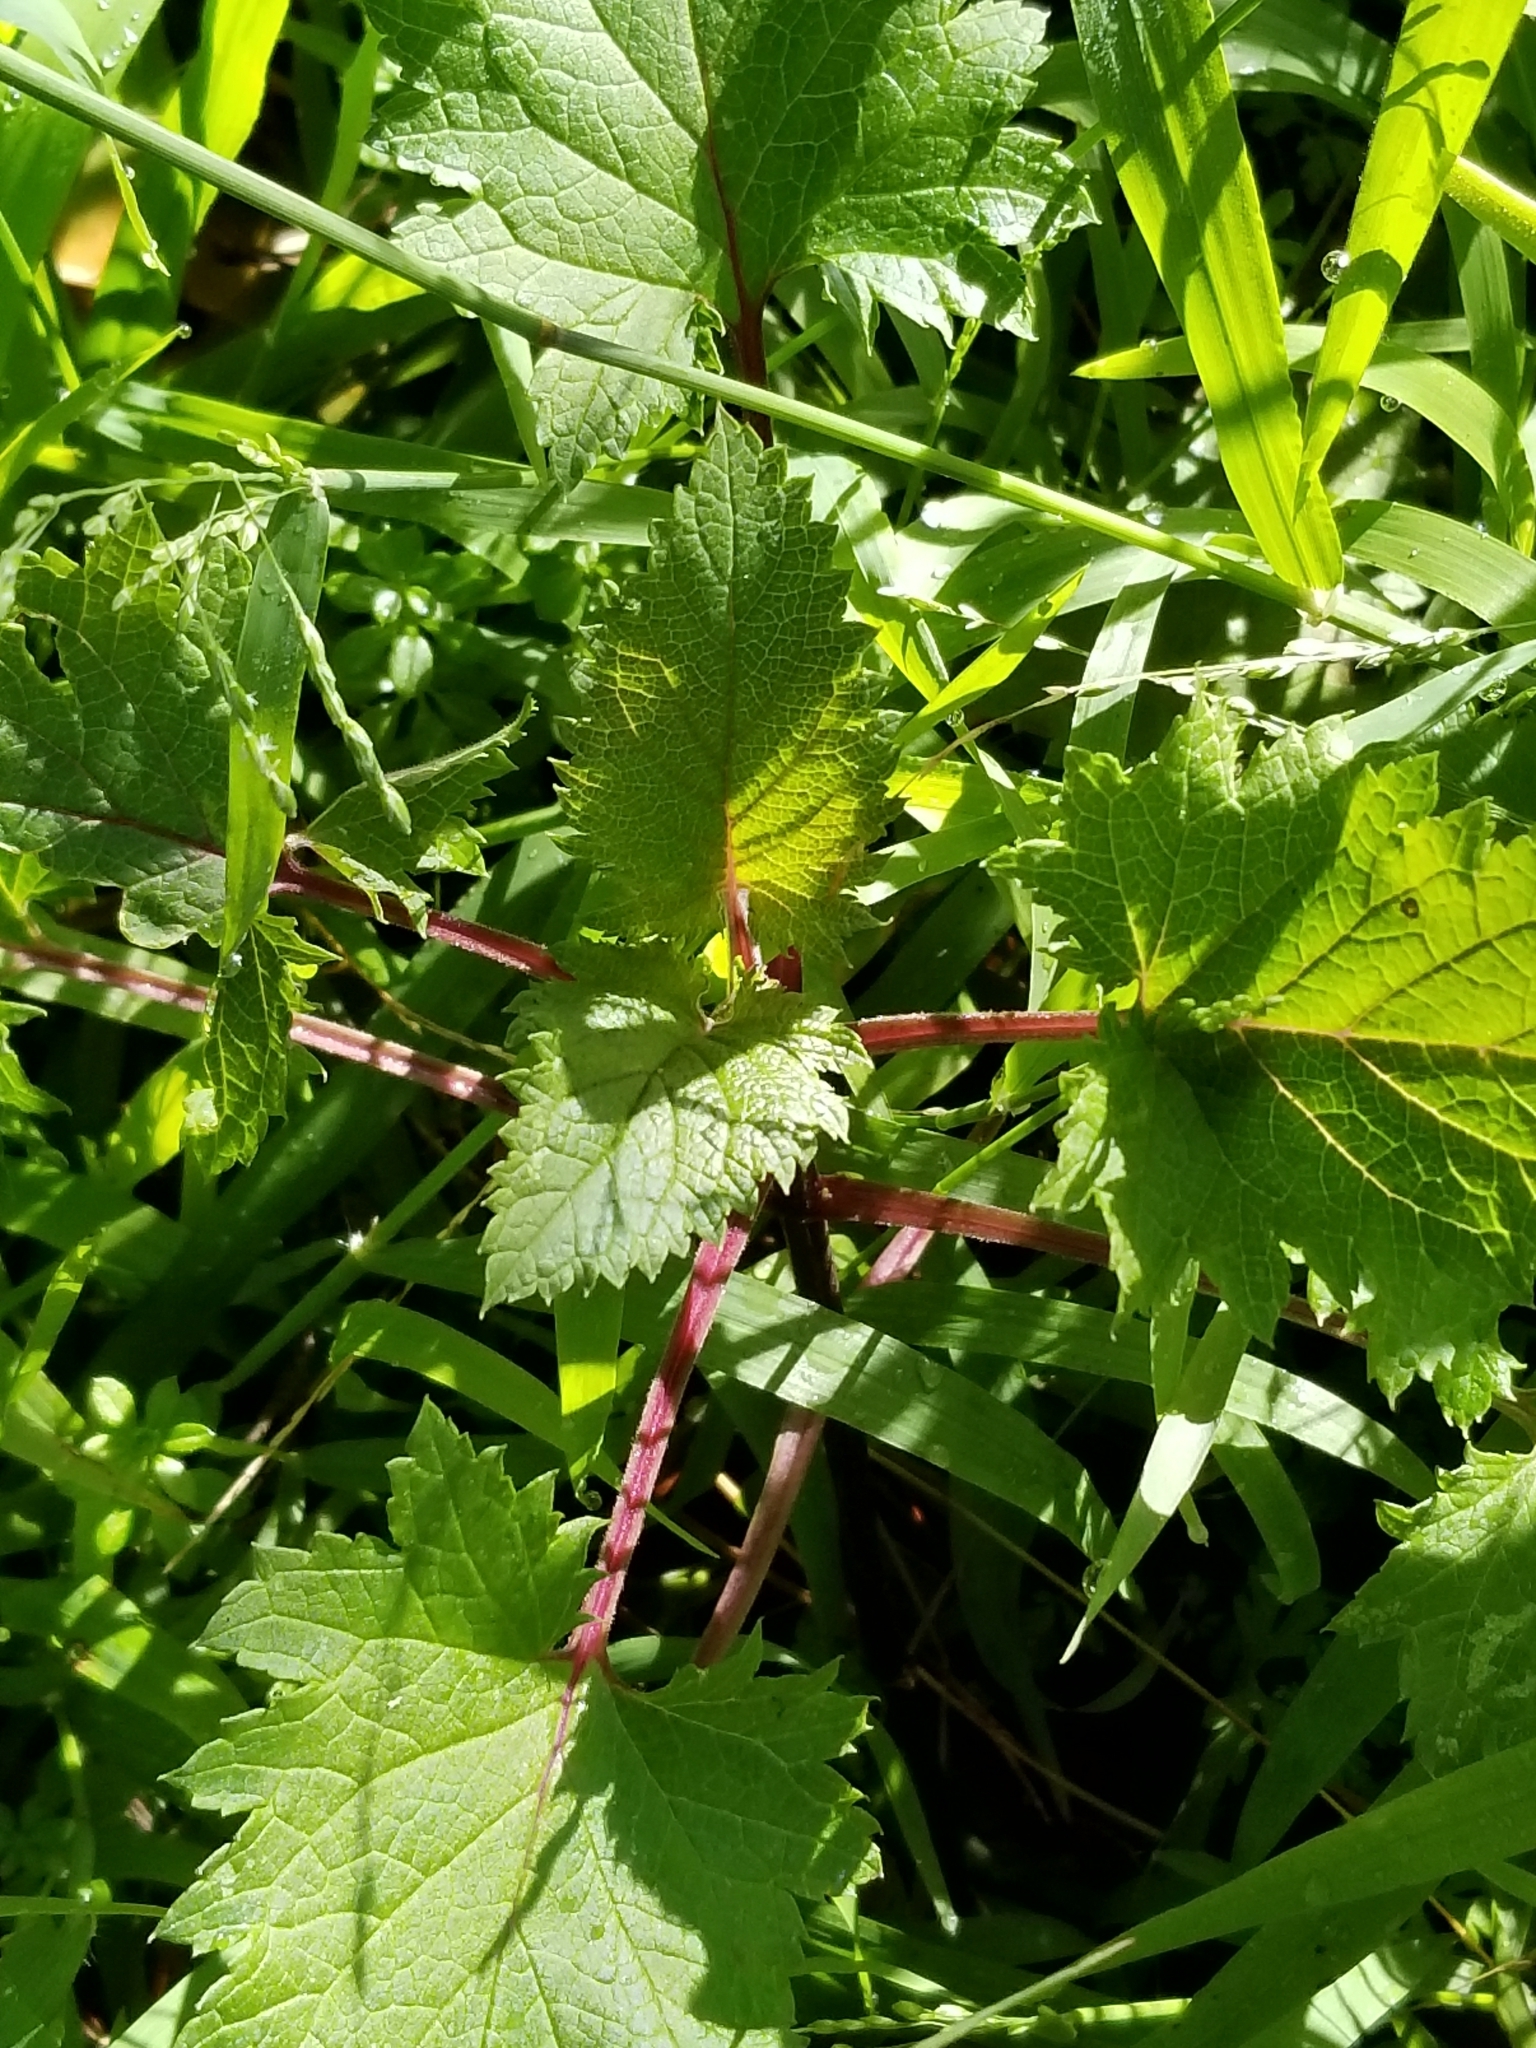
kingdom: Plantae
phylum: Tracheophyta
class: Magnoliopsida
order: Lamiales
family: Scrophulariaceae
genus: Scrophularia
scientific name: Scrophularia californica
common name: California figwort
